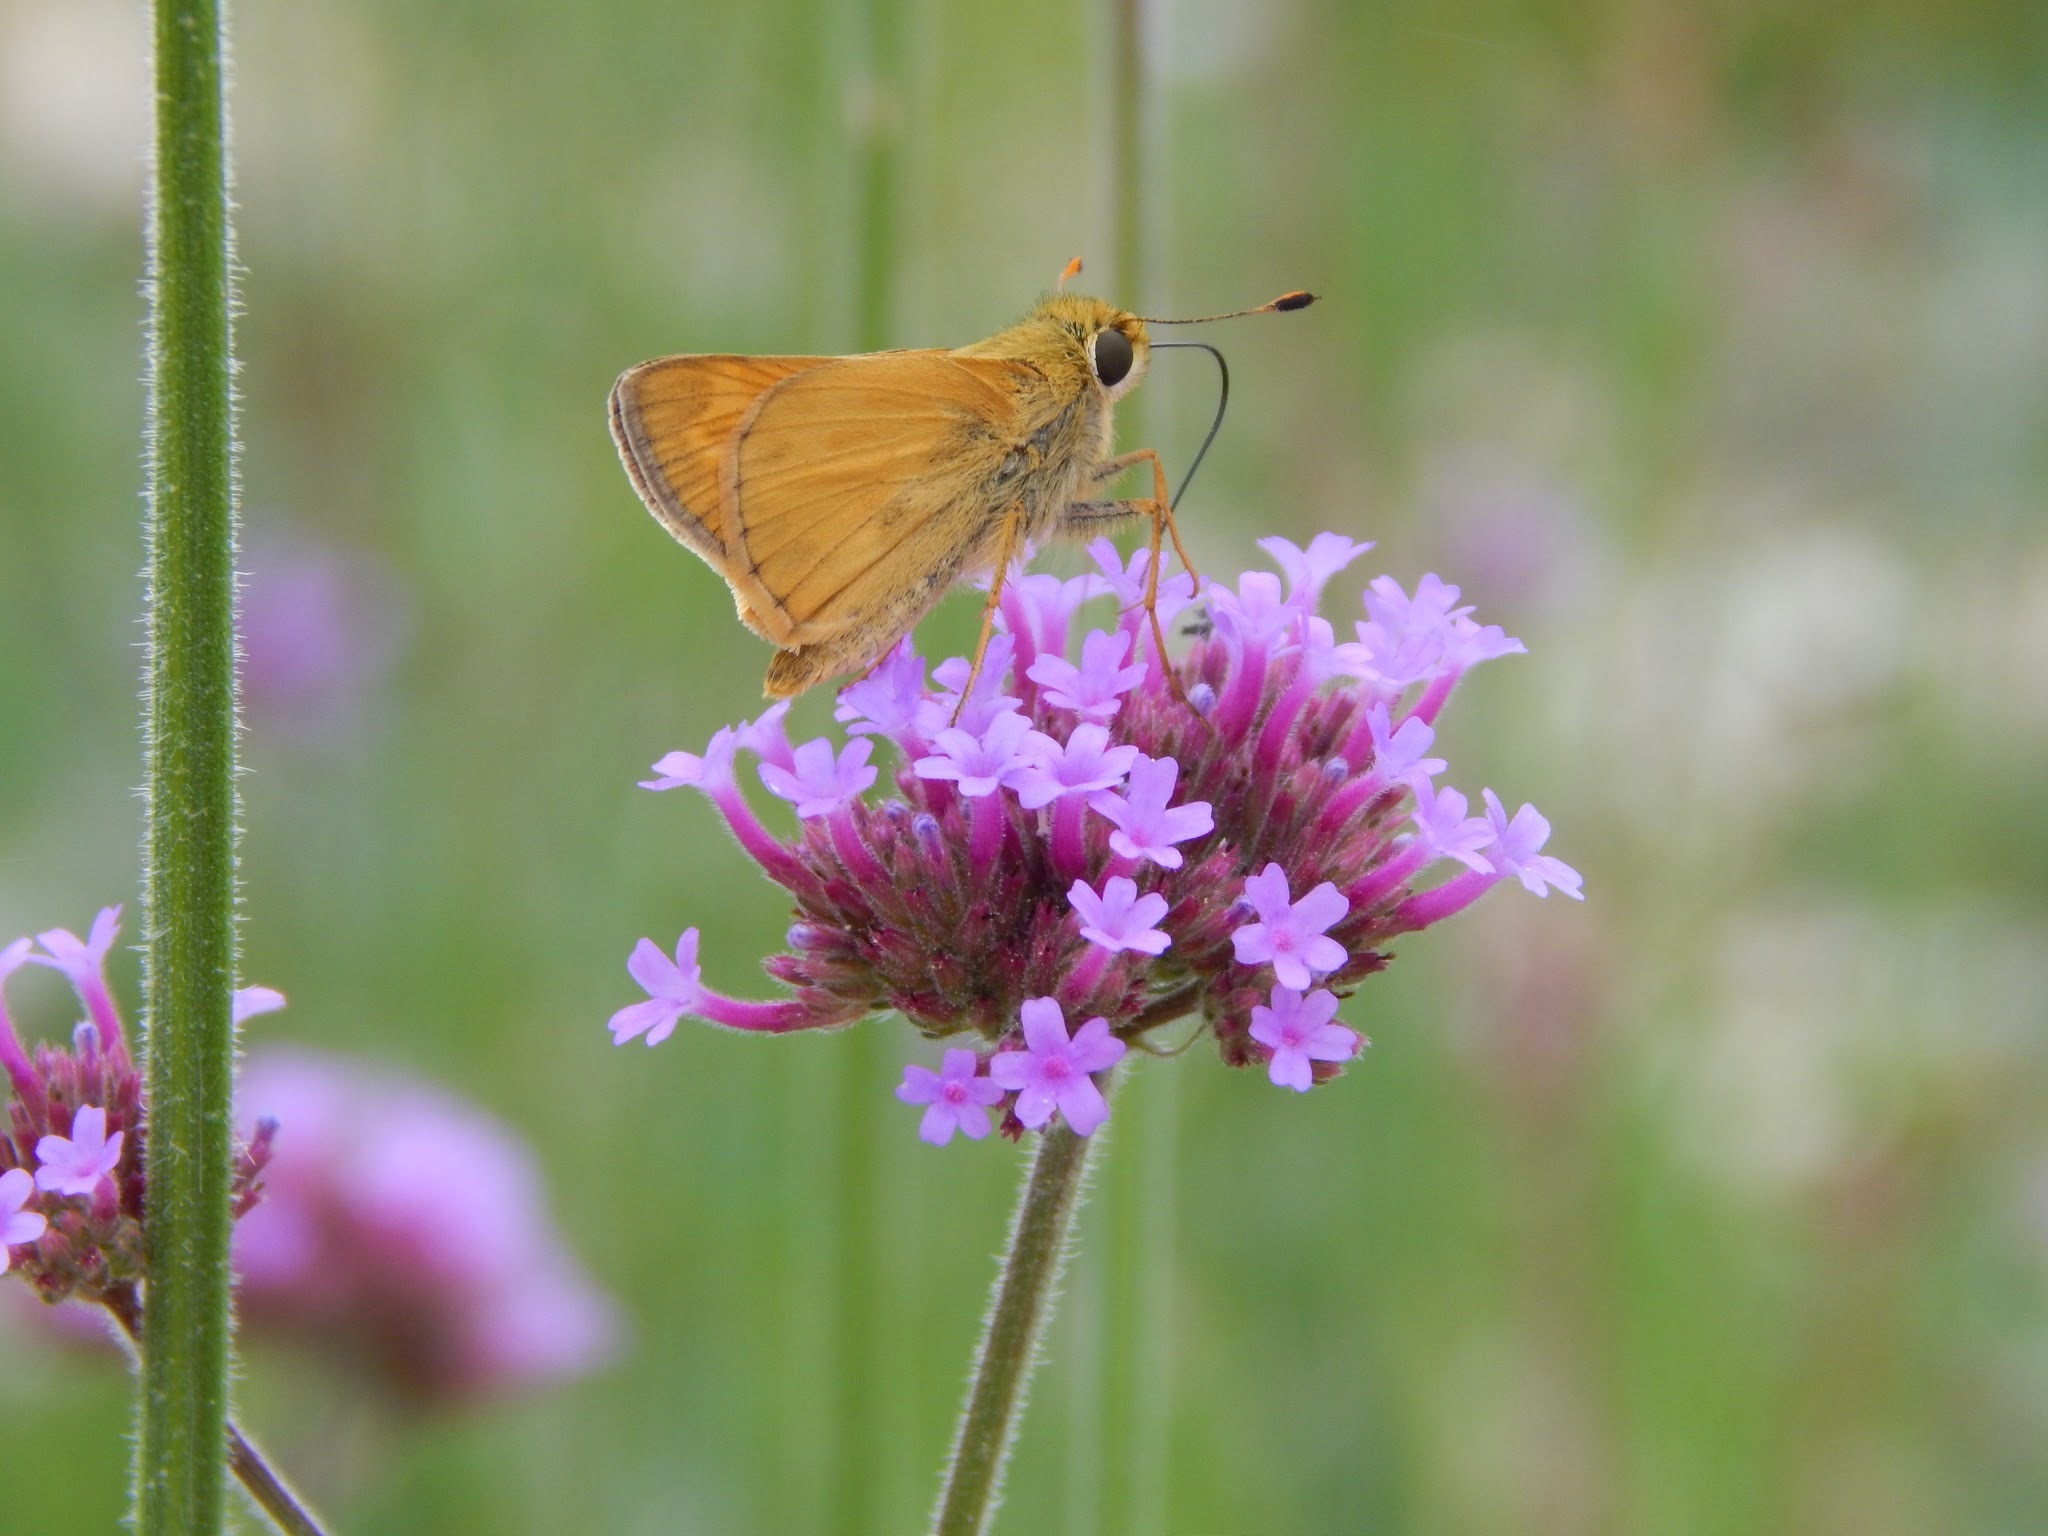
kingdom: Animalia
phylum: Arthropoda
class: Insecta
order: Lepidoptera
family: Hesperiidae
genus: Atalopedes
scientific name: Atalopedes
